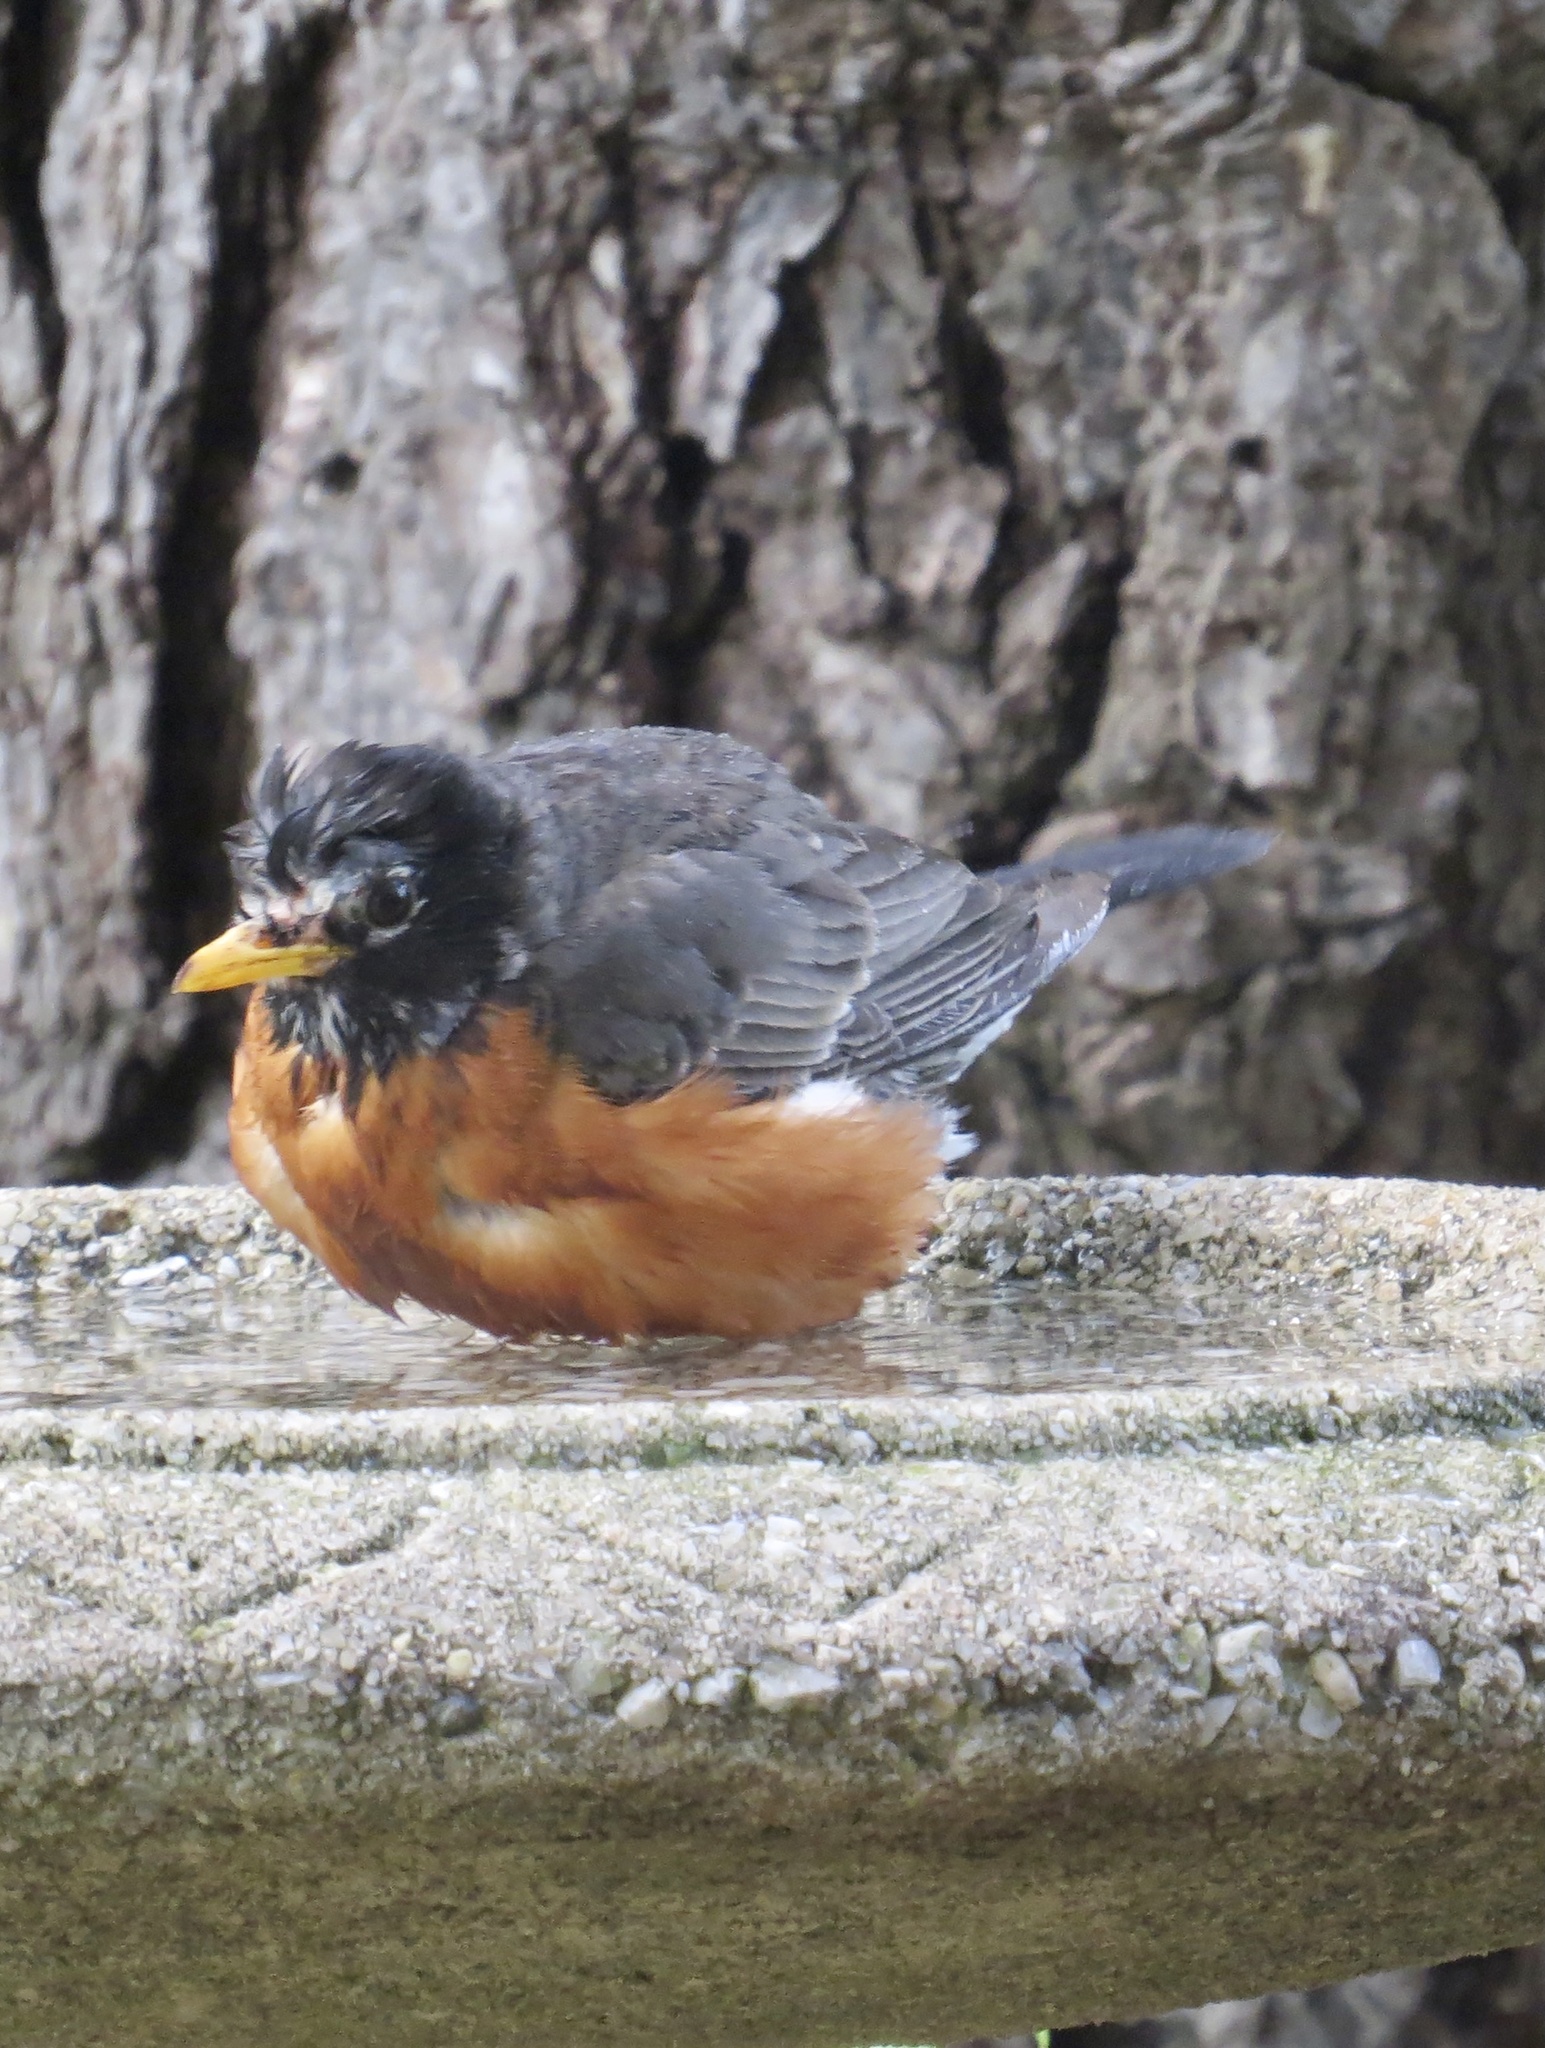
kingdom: Animalia
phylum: Chordata
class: Aves
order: Passeriformes
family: Turdidae
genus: Turdus
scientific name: Turdus migratorius
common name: American robin
